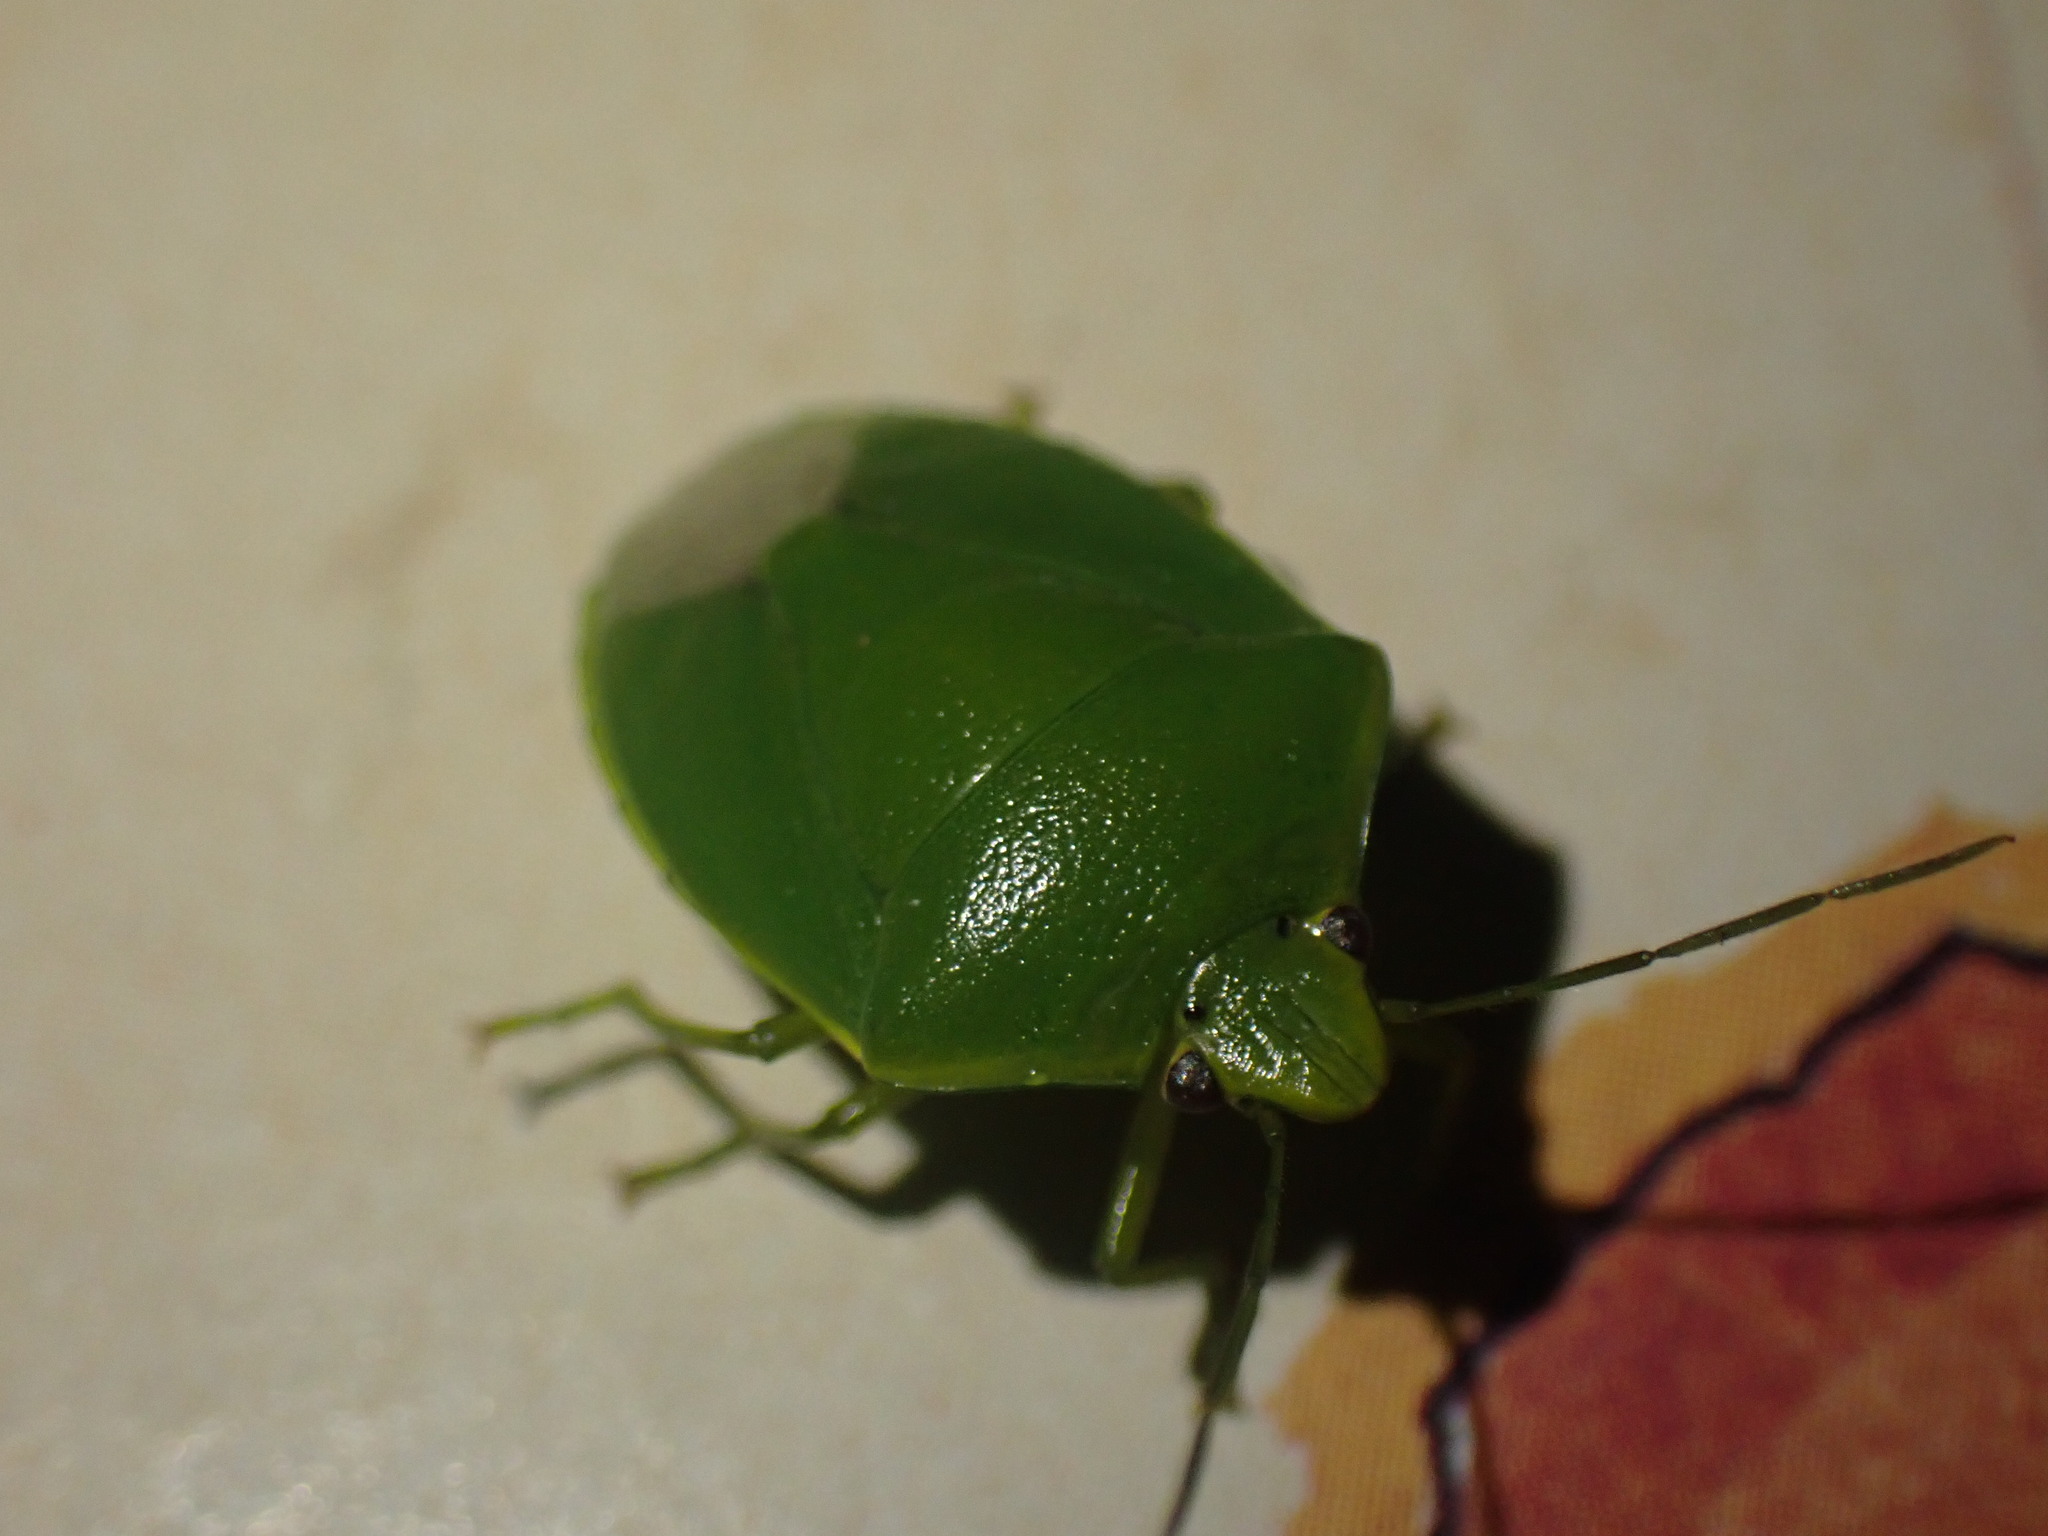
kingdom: Animalia
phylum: Arthropoda
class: Insecta
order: Hemiptera
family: Pentatomidae
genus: Glaucias
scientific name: Glaucias amyota
